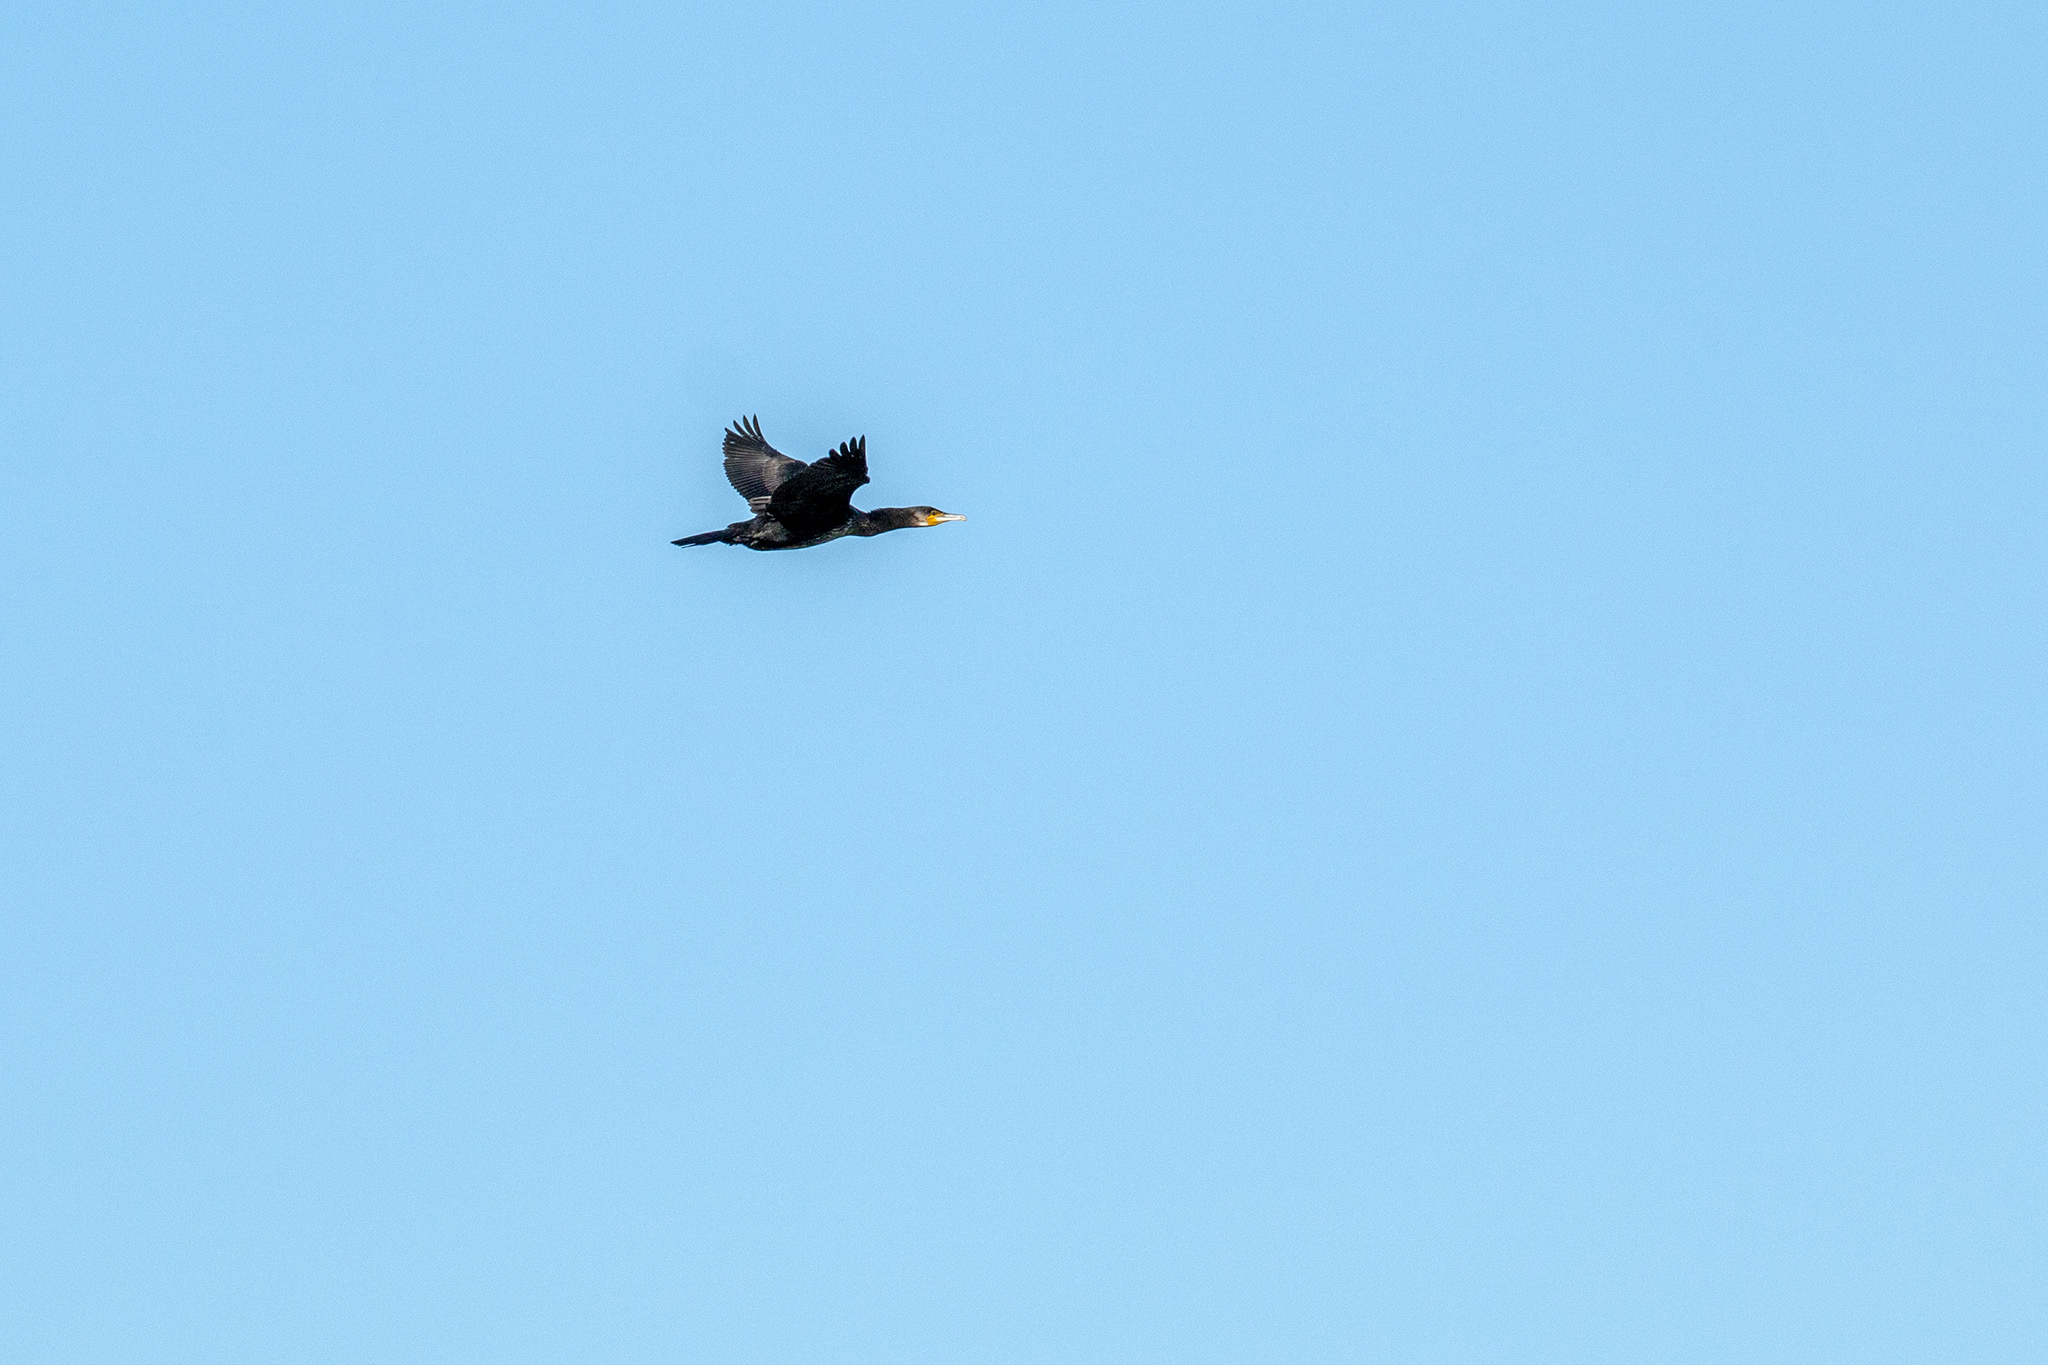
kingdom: Animalia
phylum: Chordata
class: Aves
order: Suliformes
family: Phalacrocoracidae
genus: Phalacrocorax
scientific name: Phalacrocorax carbo
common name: Great cormorant
